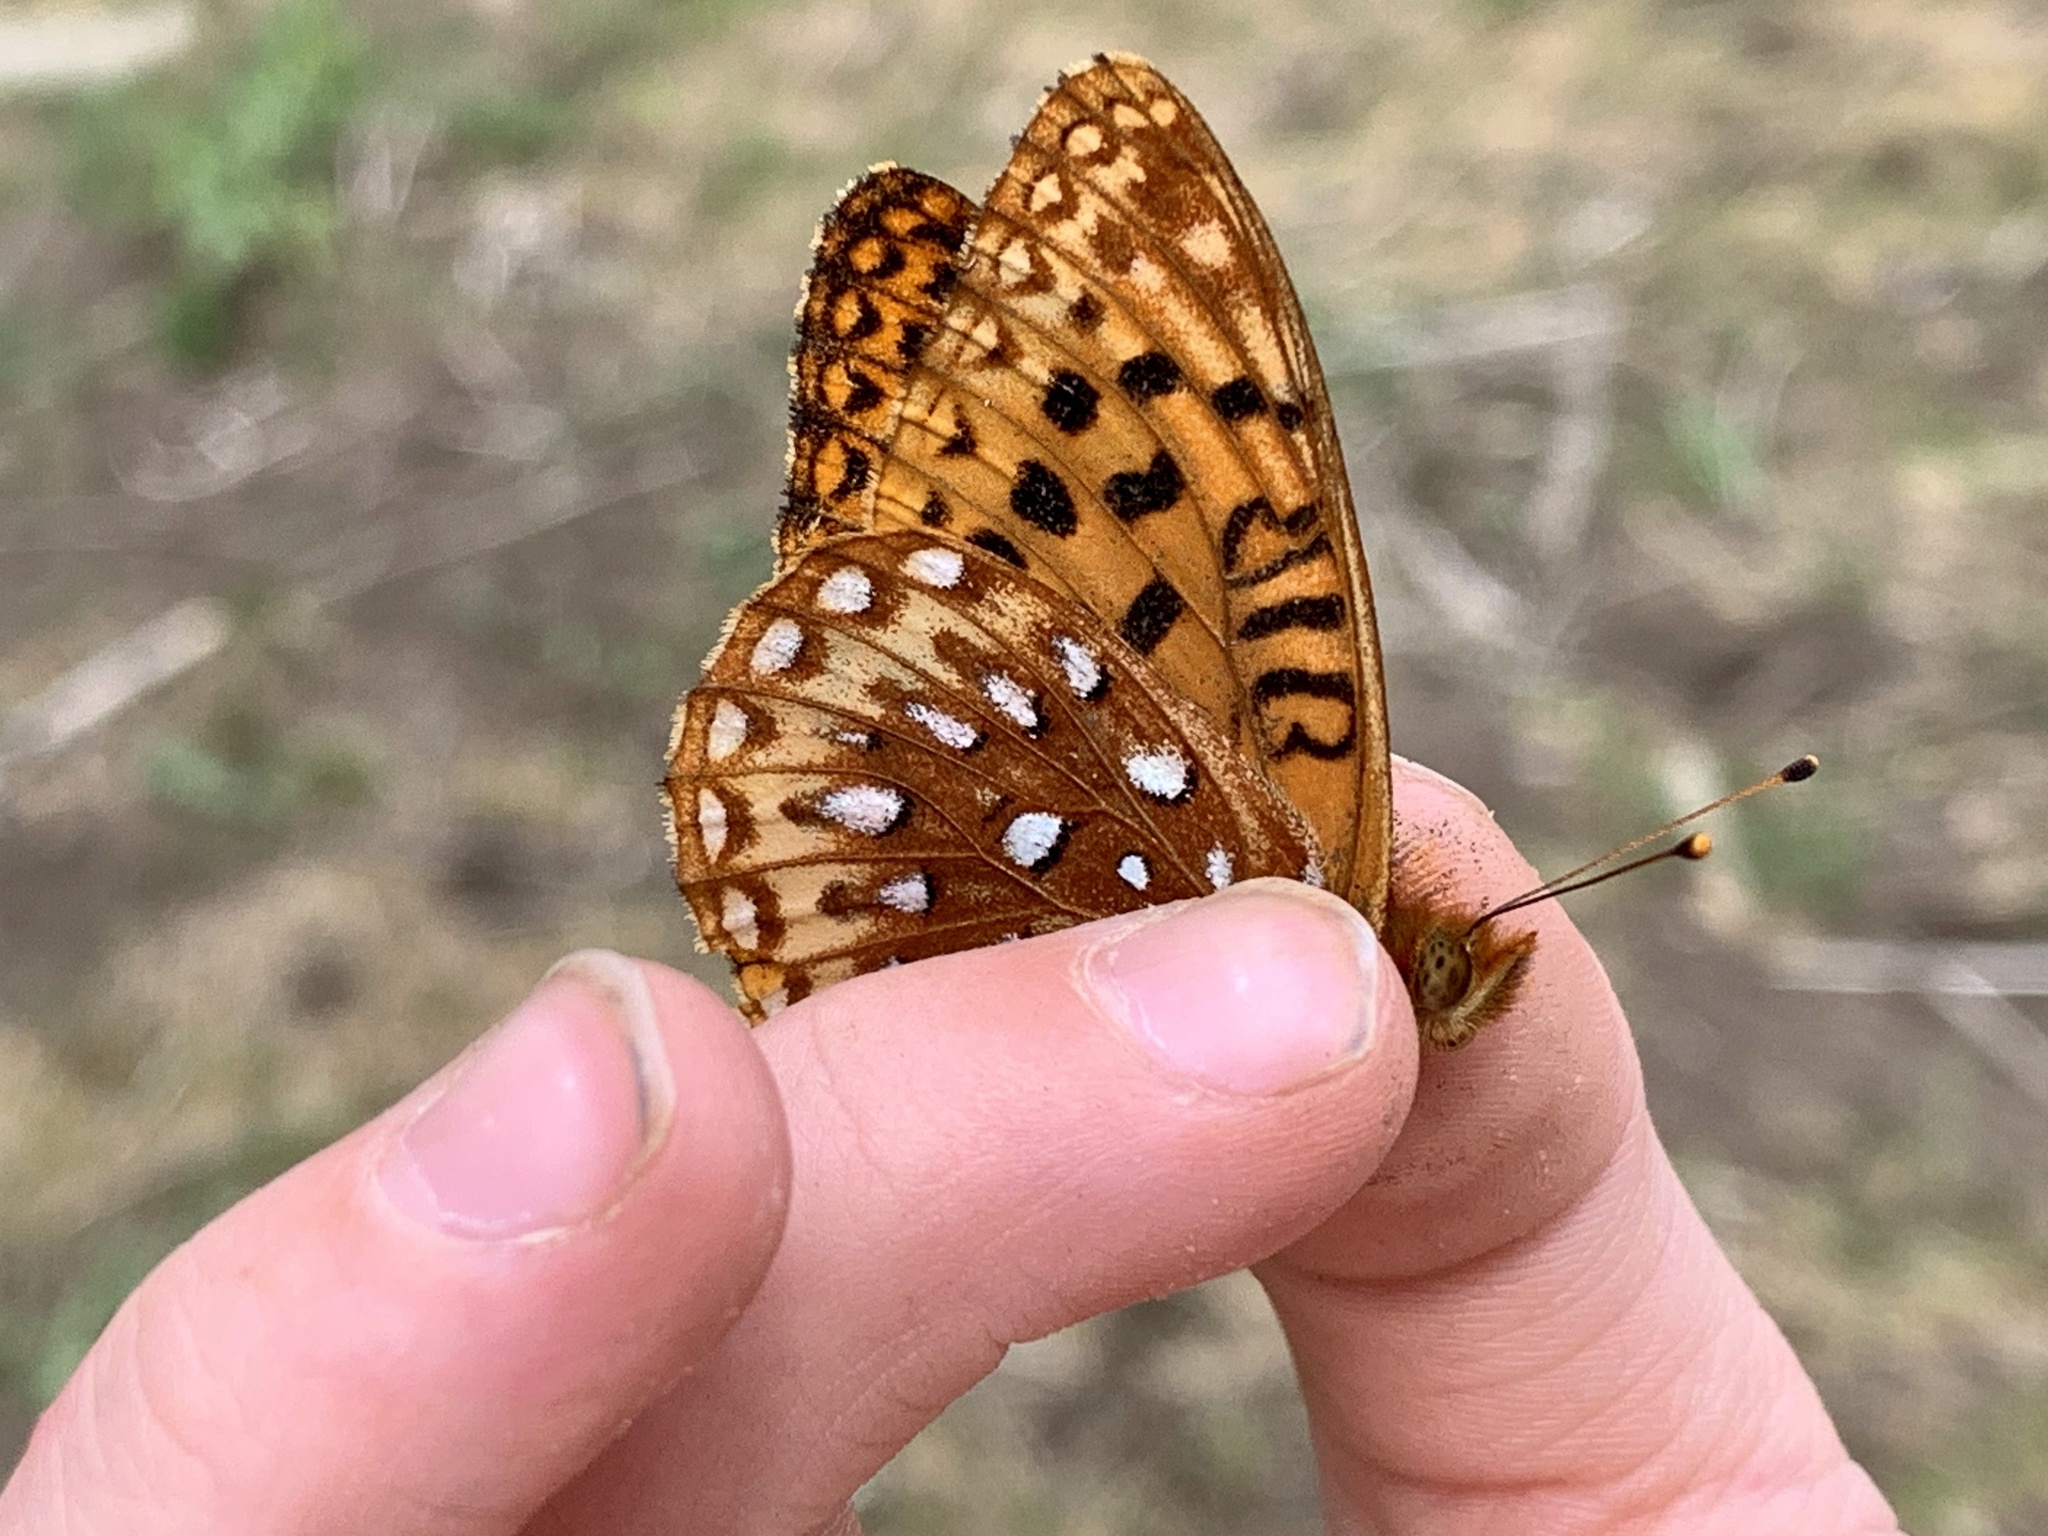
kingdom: Animalia
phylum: Arthropoda
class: Insecta
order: Lepidoptera
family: Nymphalidae
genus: Speyeria
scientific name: Speyeria atlantis
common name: Atlantis fritillary
